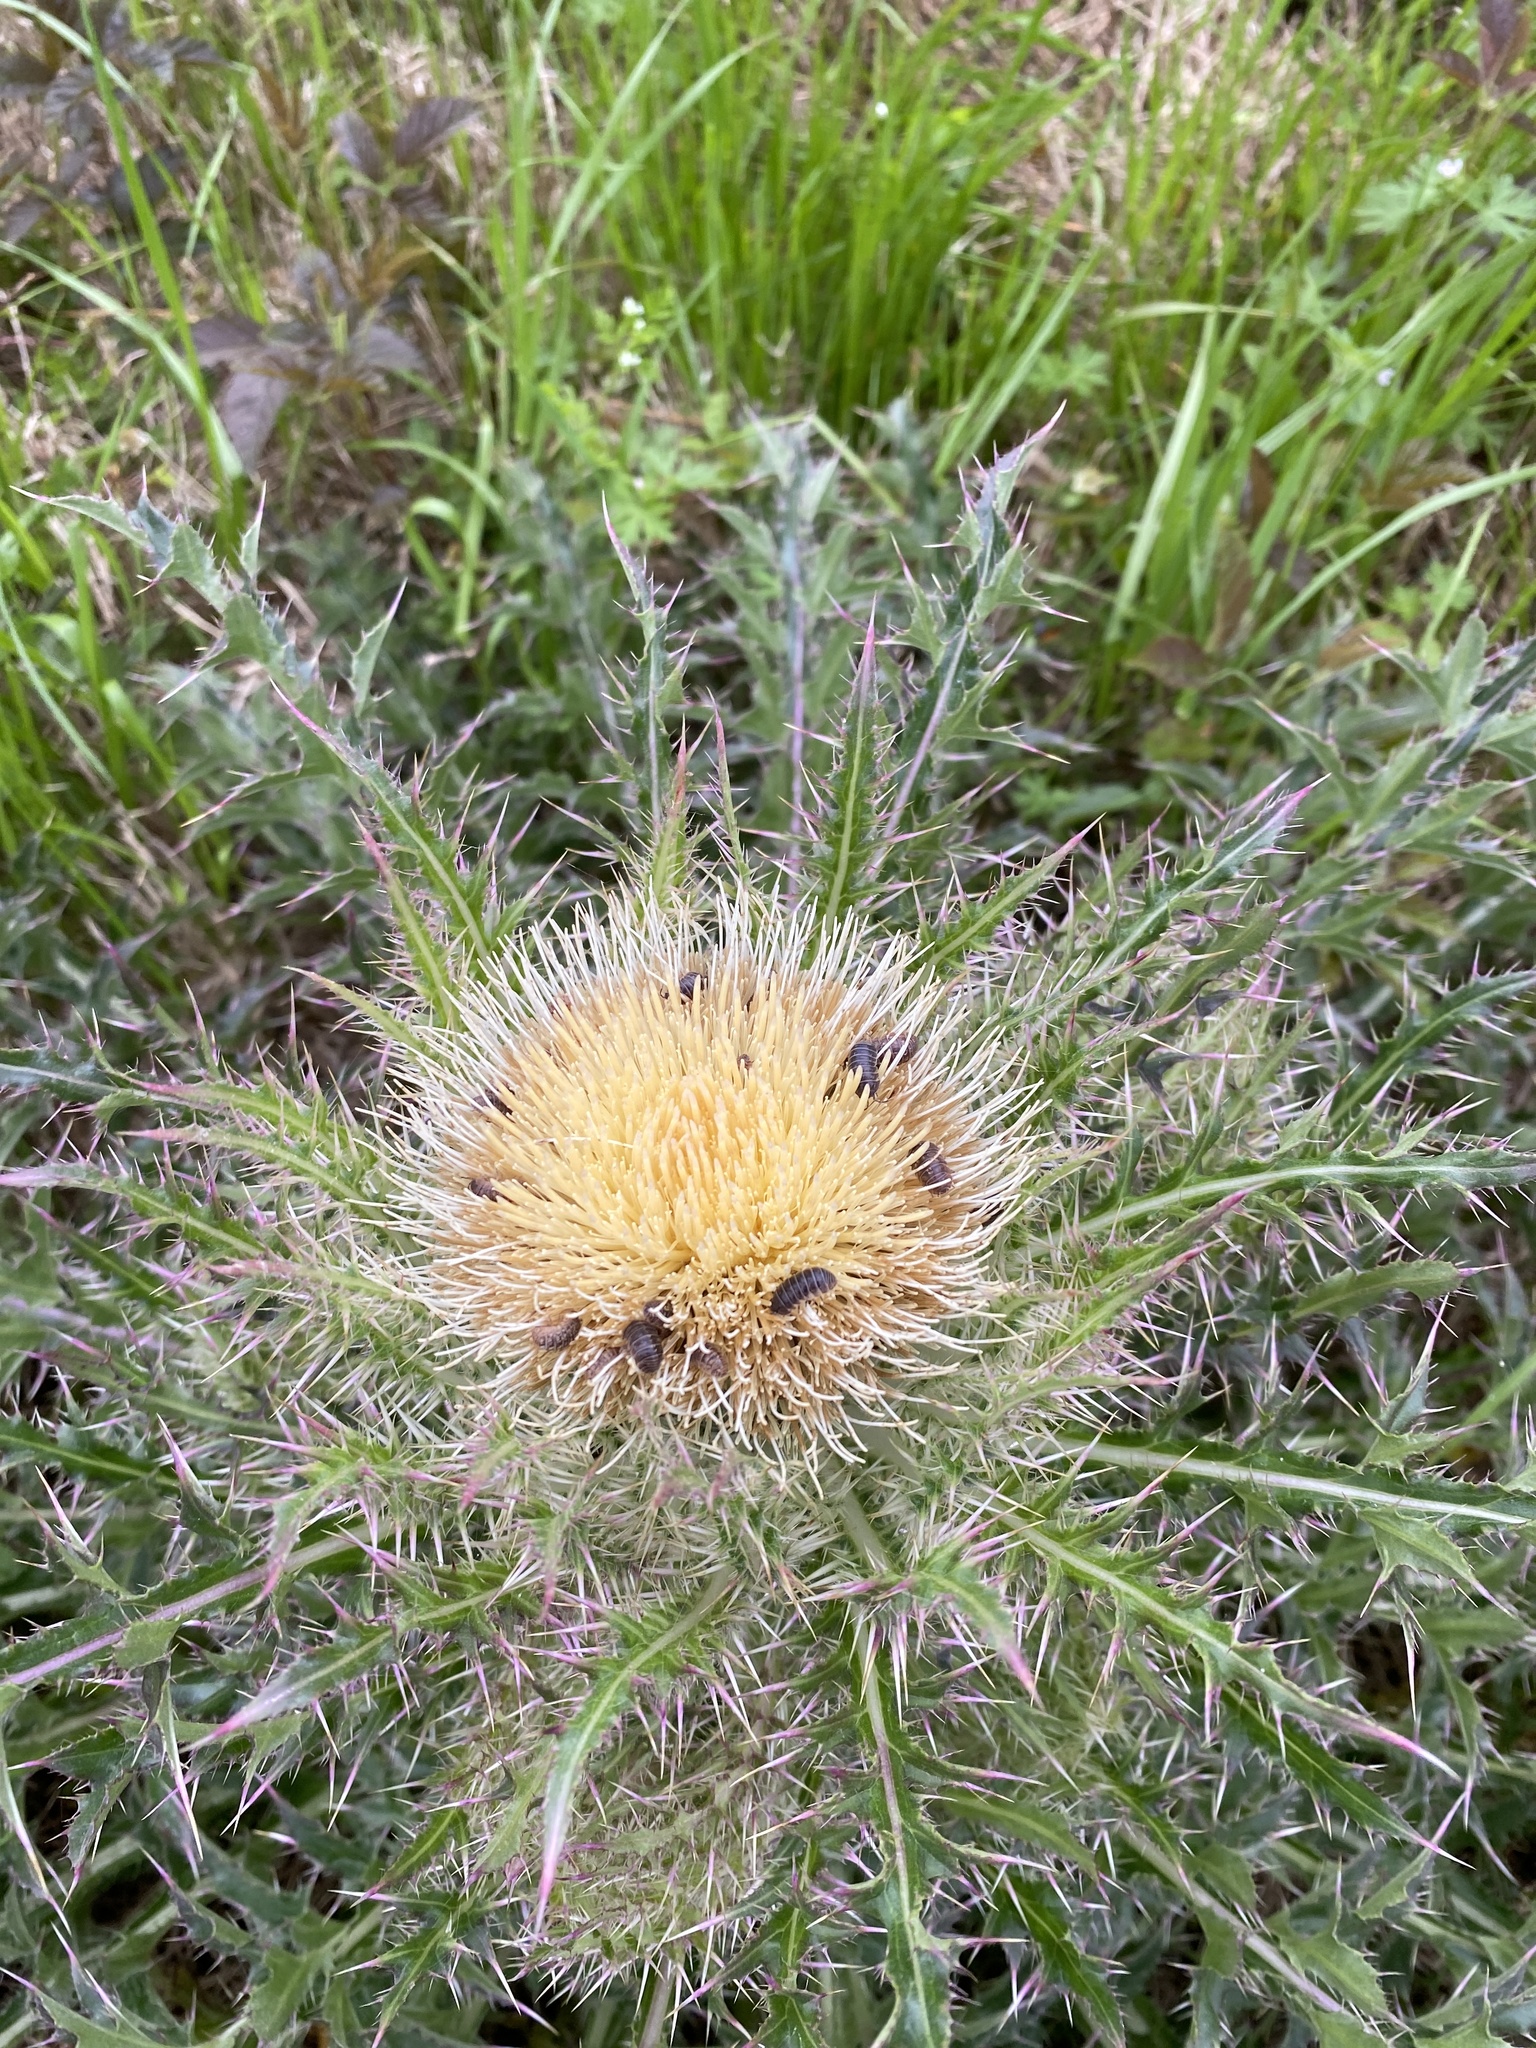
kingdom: Plantae
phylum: Tracheophyta
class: Magnoliopsida
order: Asterales
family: Asteraceae
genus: Cirsium
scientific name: Cirsium horridulum
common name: Bristly thistle
